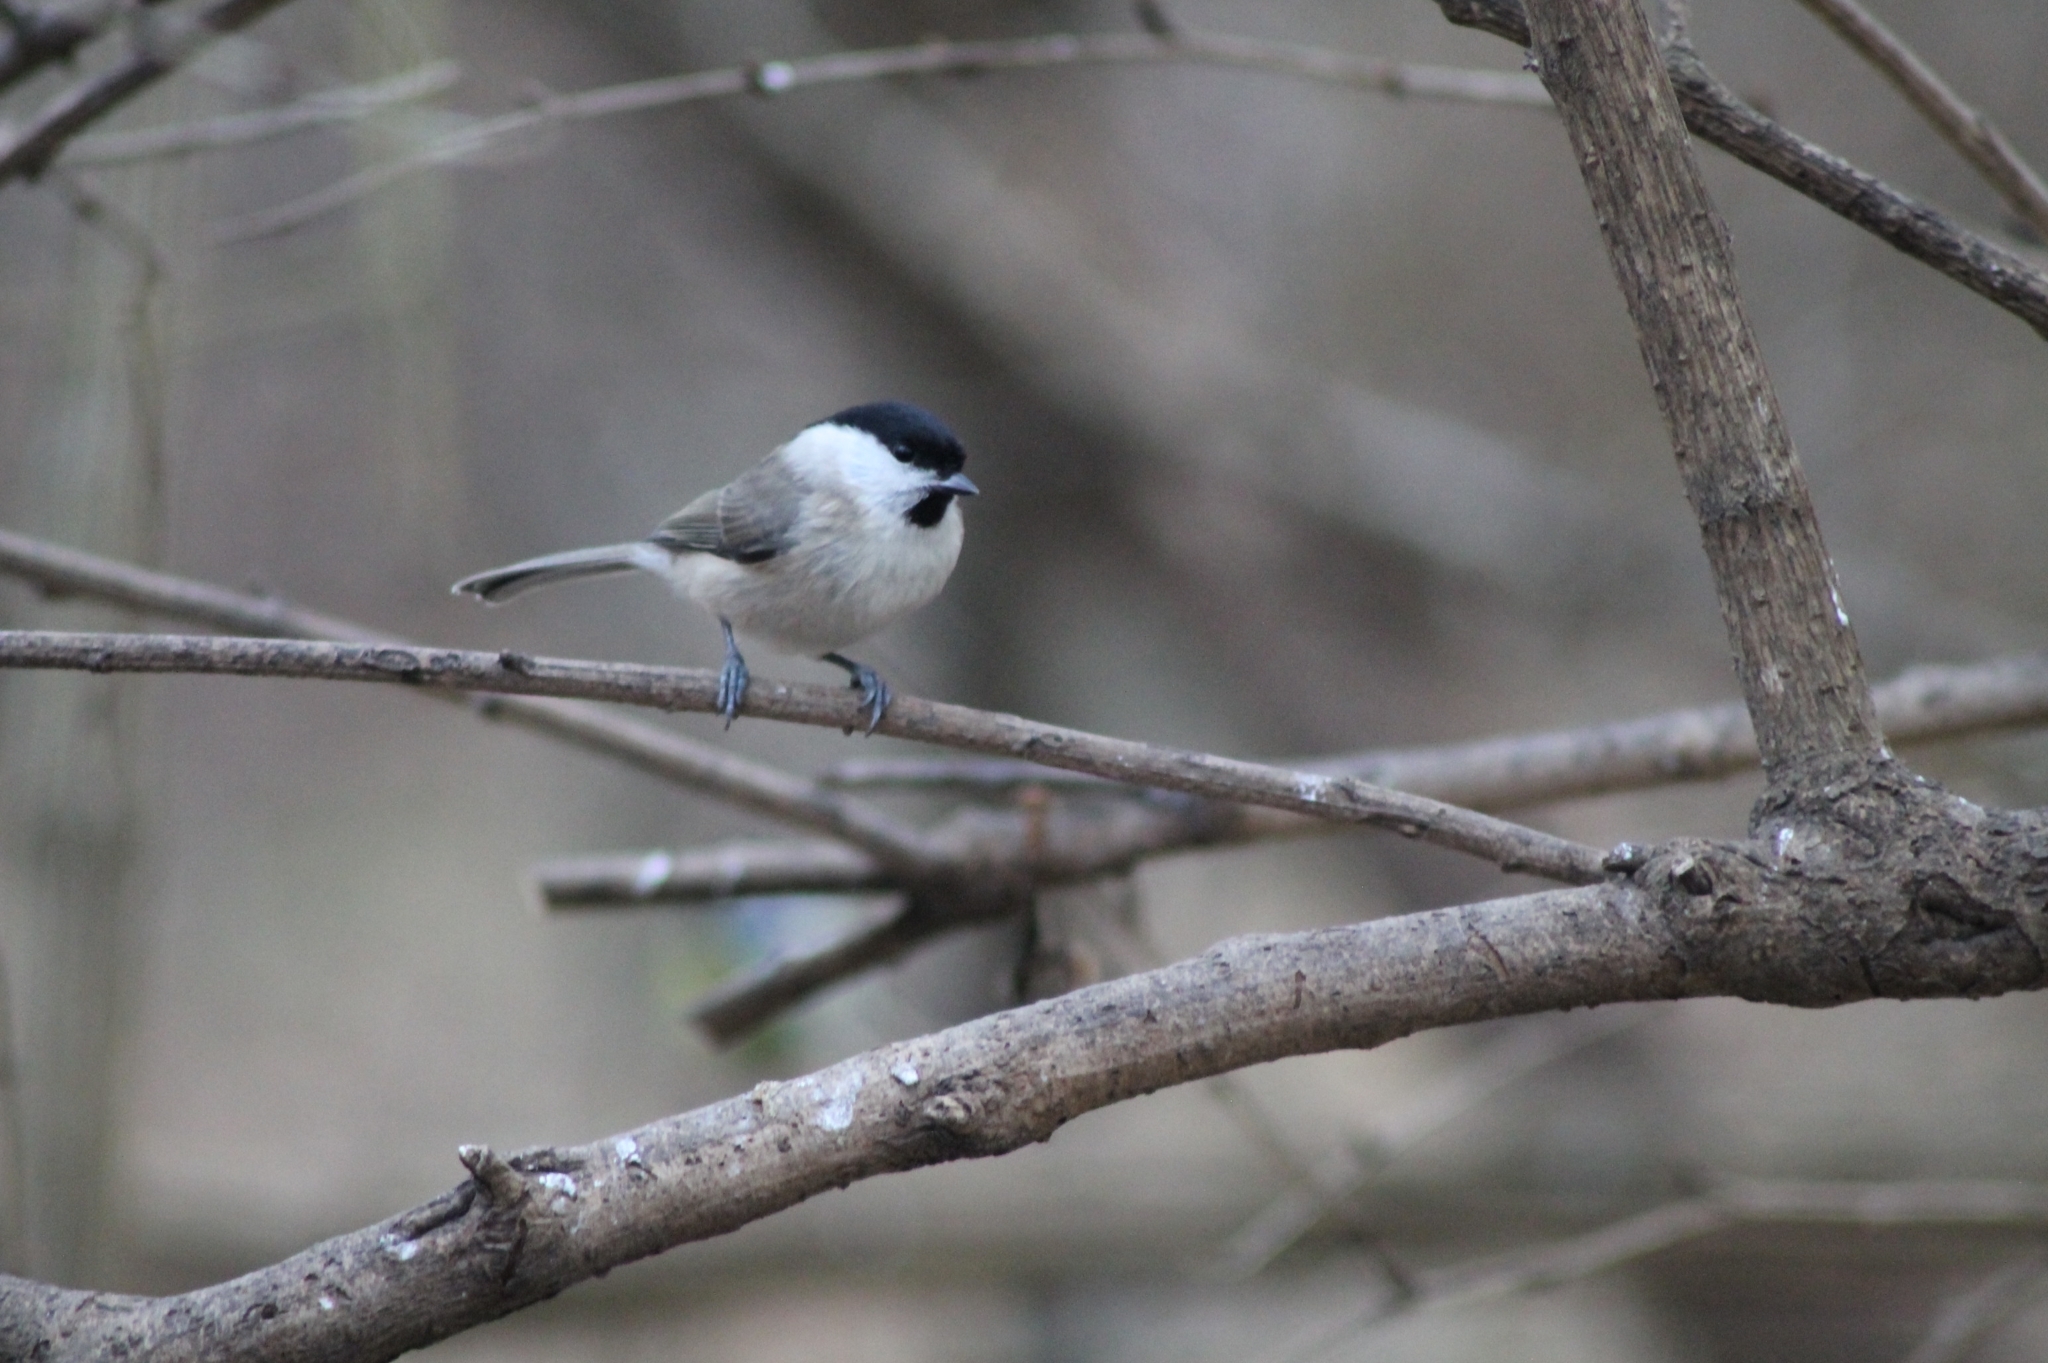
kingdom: Animalia
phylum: Chordata
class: Aves
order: Passeriformes
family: Paridae
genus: Poecile
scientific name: Poecile palustris
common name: Marsh tit
